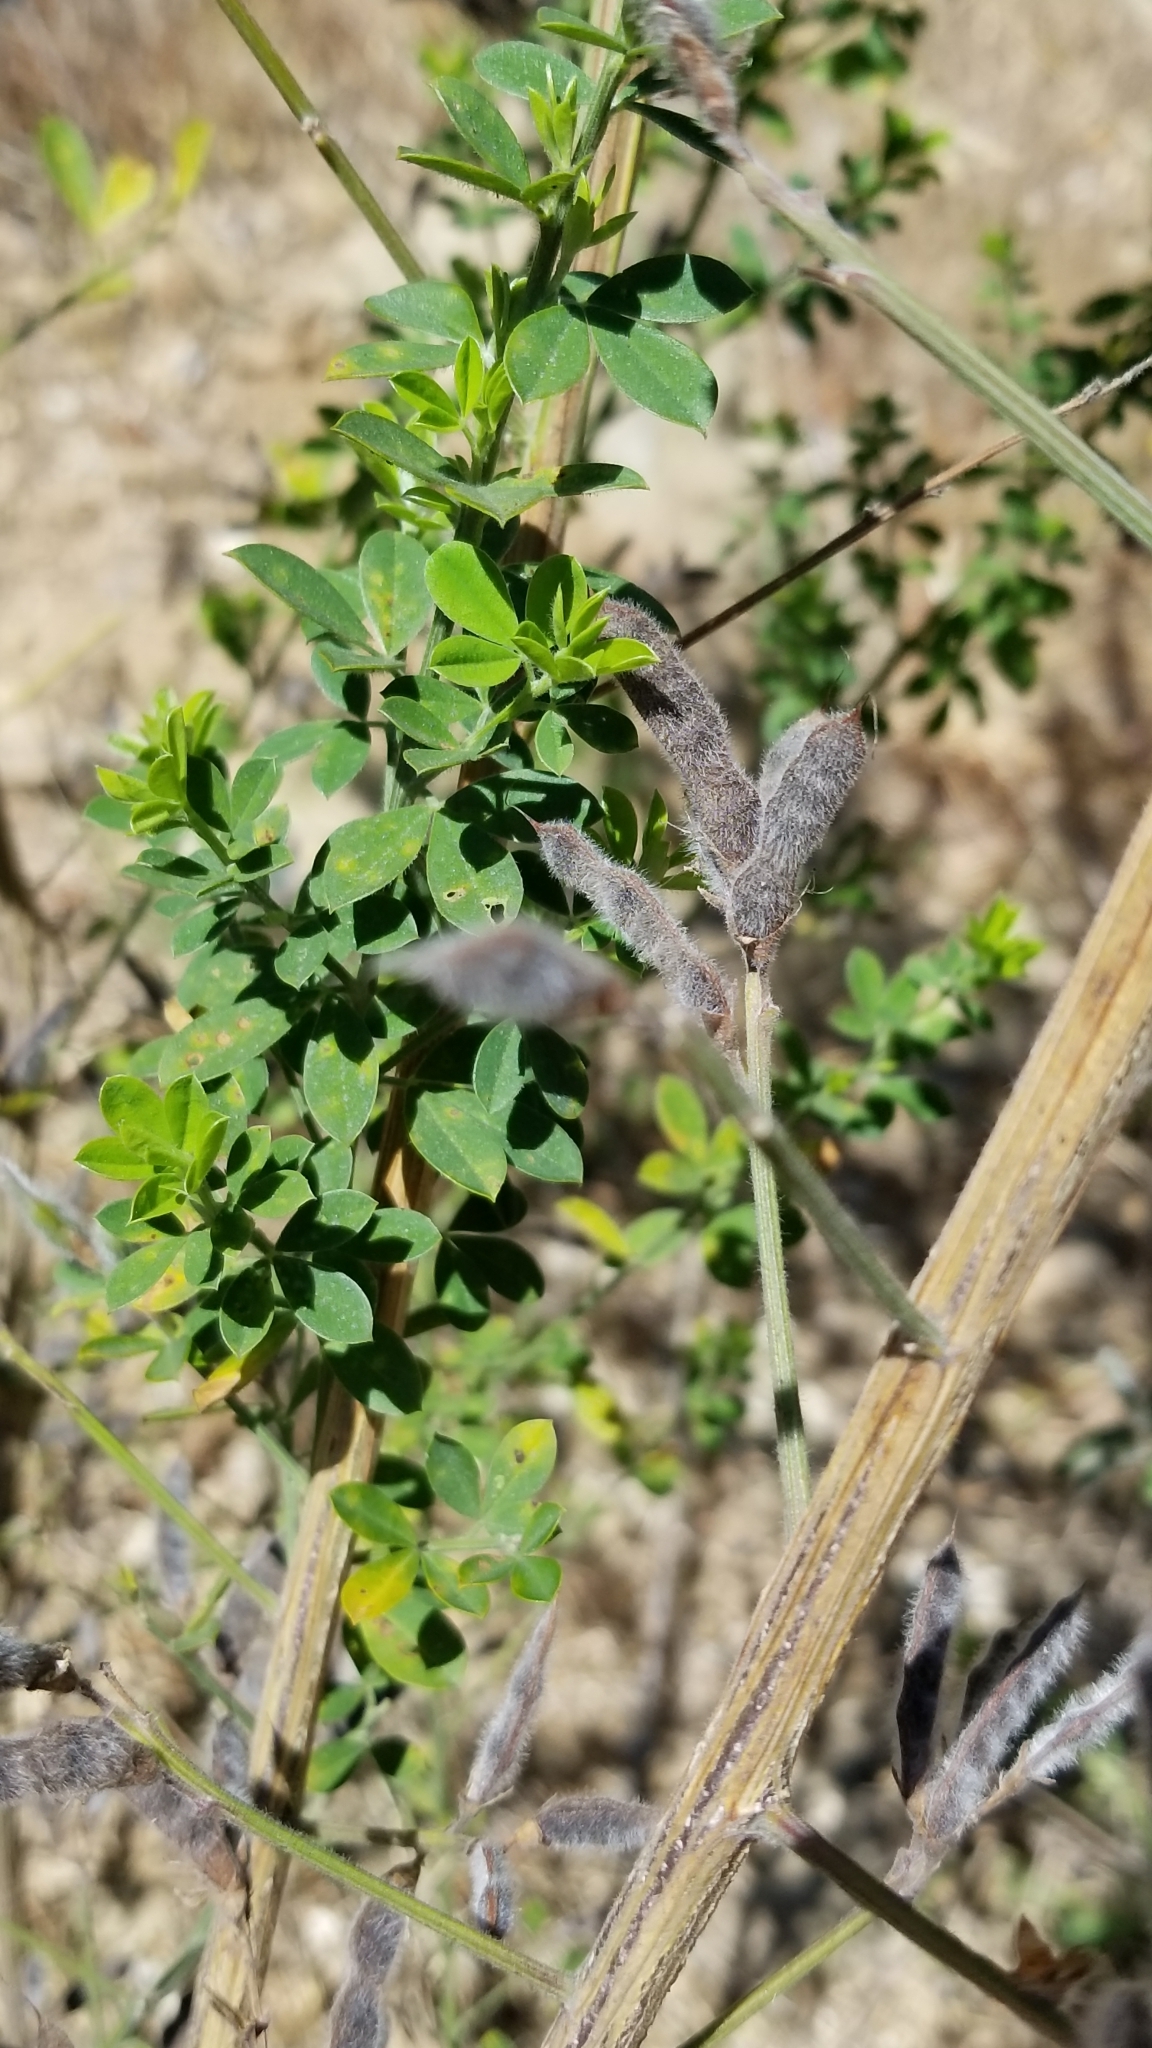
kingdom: Plantae
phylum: Tracheophyta
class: Magnoliopsida
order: Fabales
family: Fabaceae
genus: Genista
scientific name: Genista monspessulana
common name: Montpellier broom
